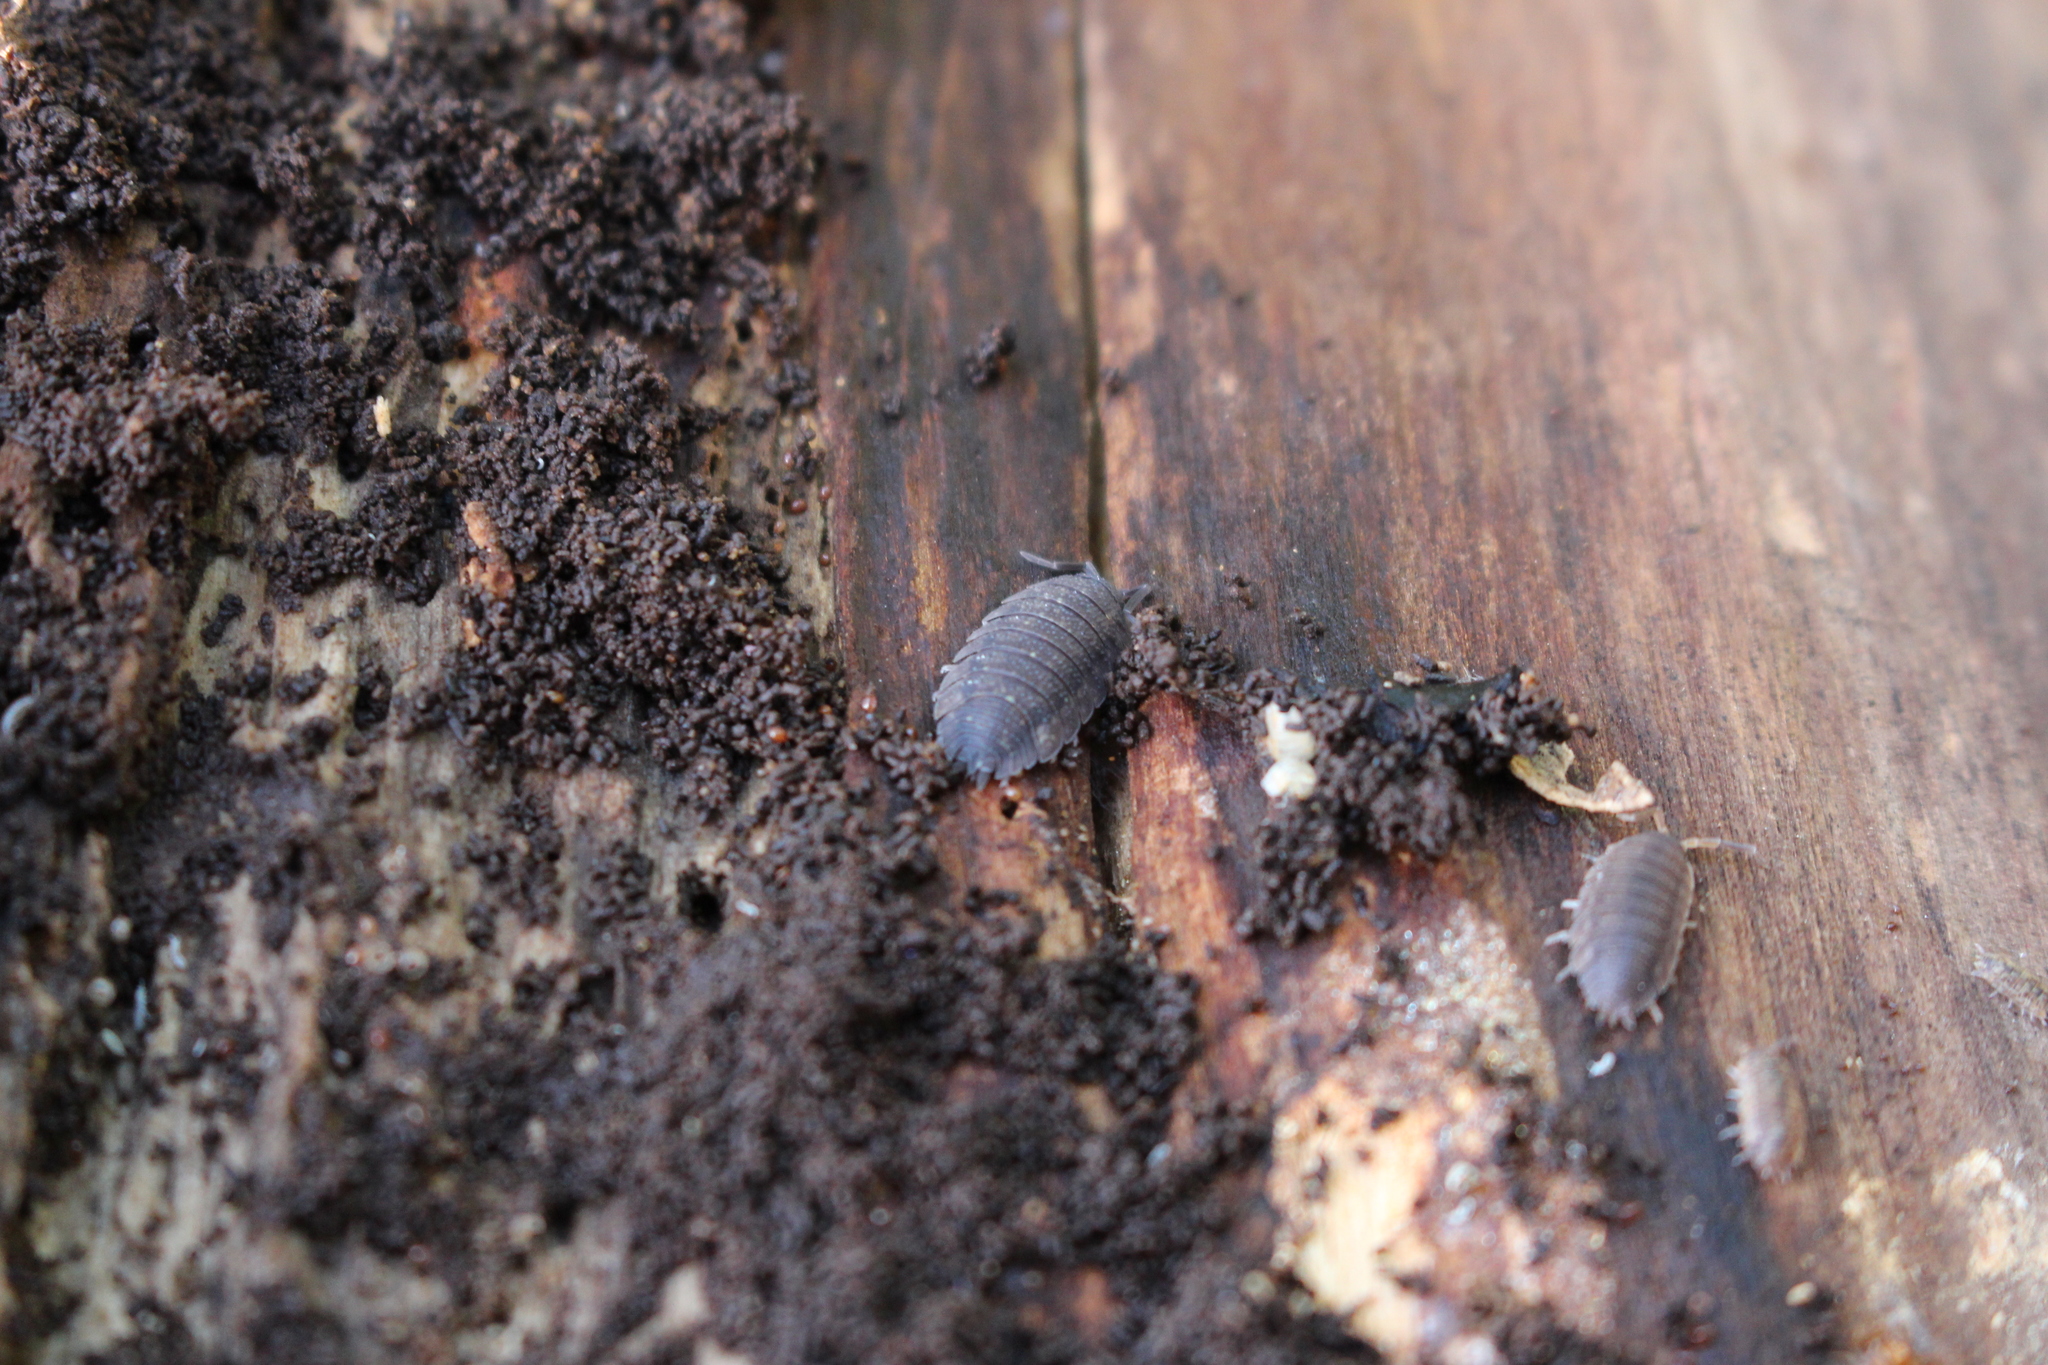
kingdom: Animalia
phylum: Arthropoda
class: Malacostraca
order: Isopoda
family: Porcellionidae
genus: Porcellio
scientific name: Porcellio scaber
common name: Common rough woodlouse
